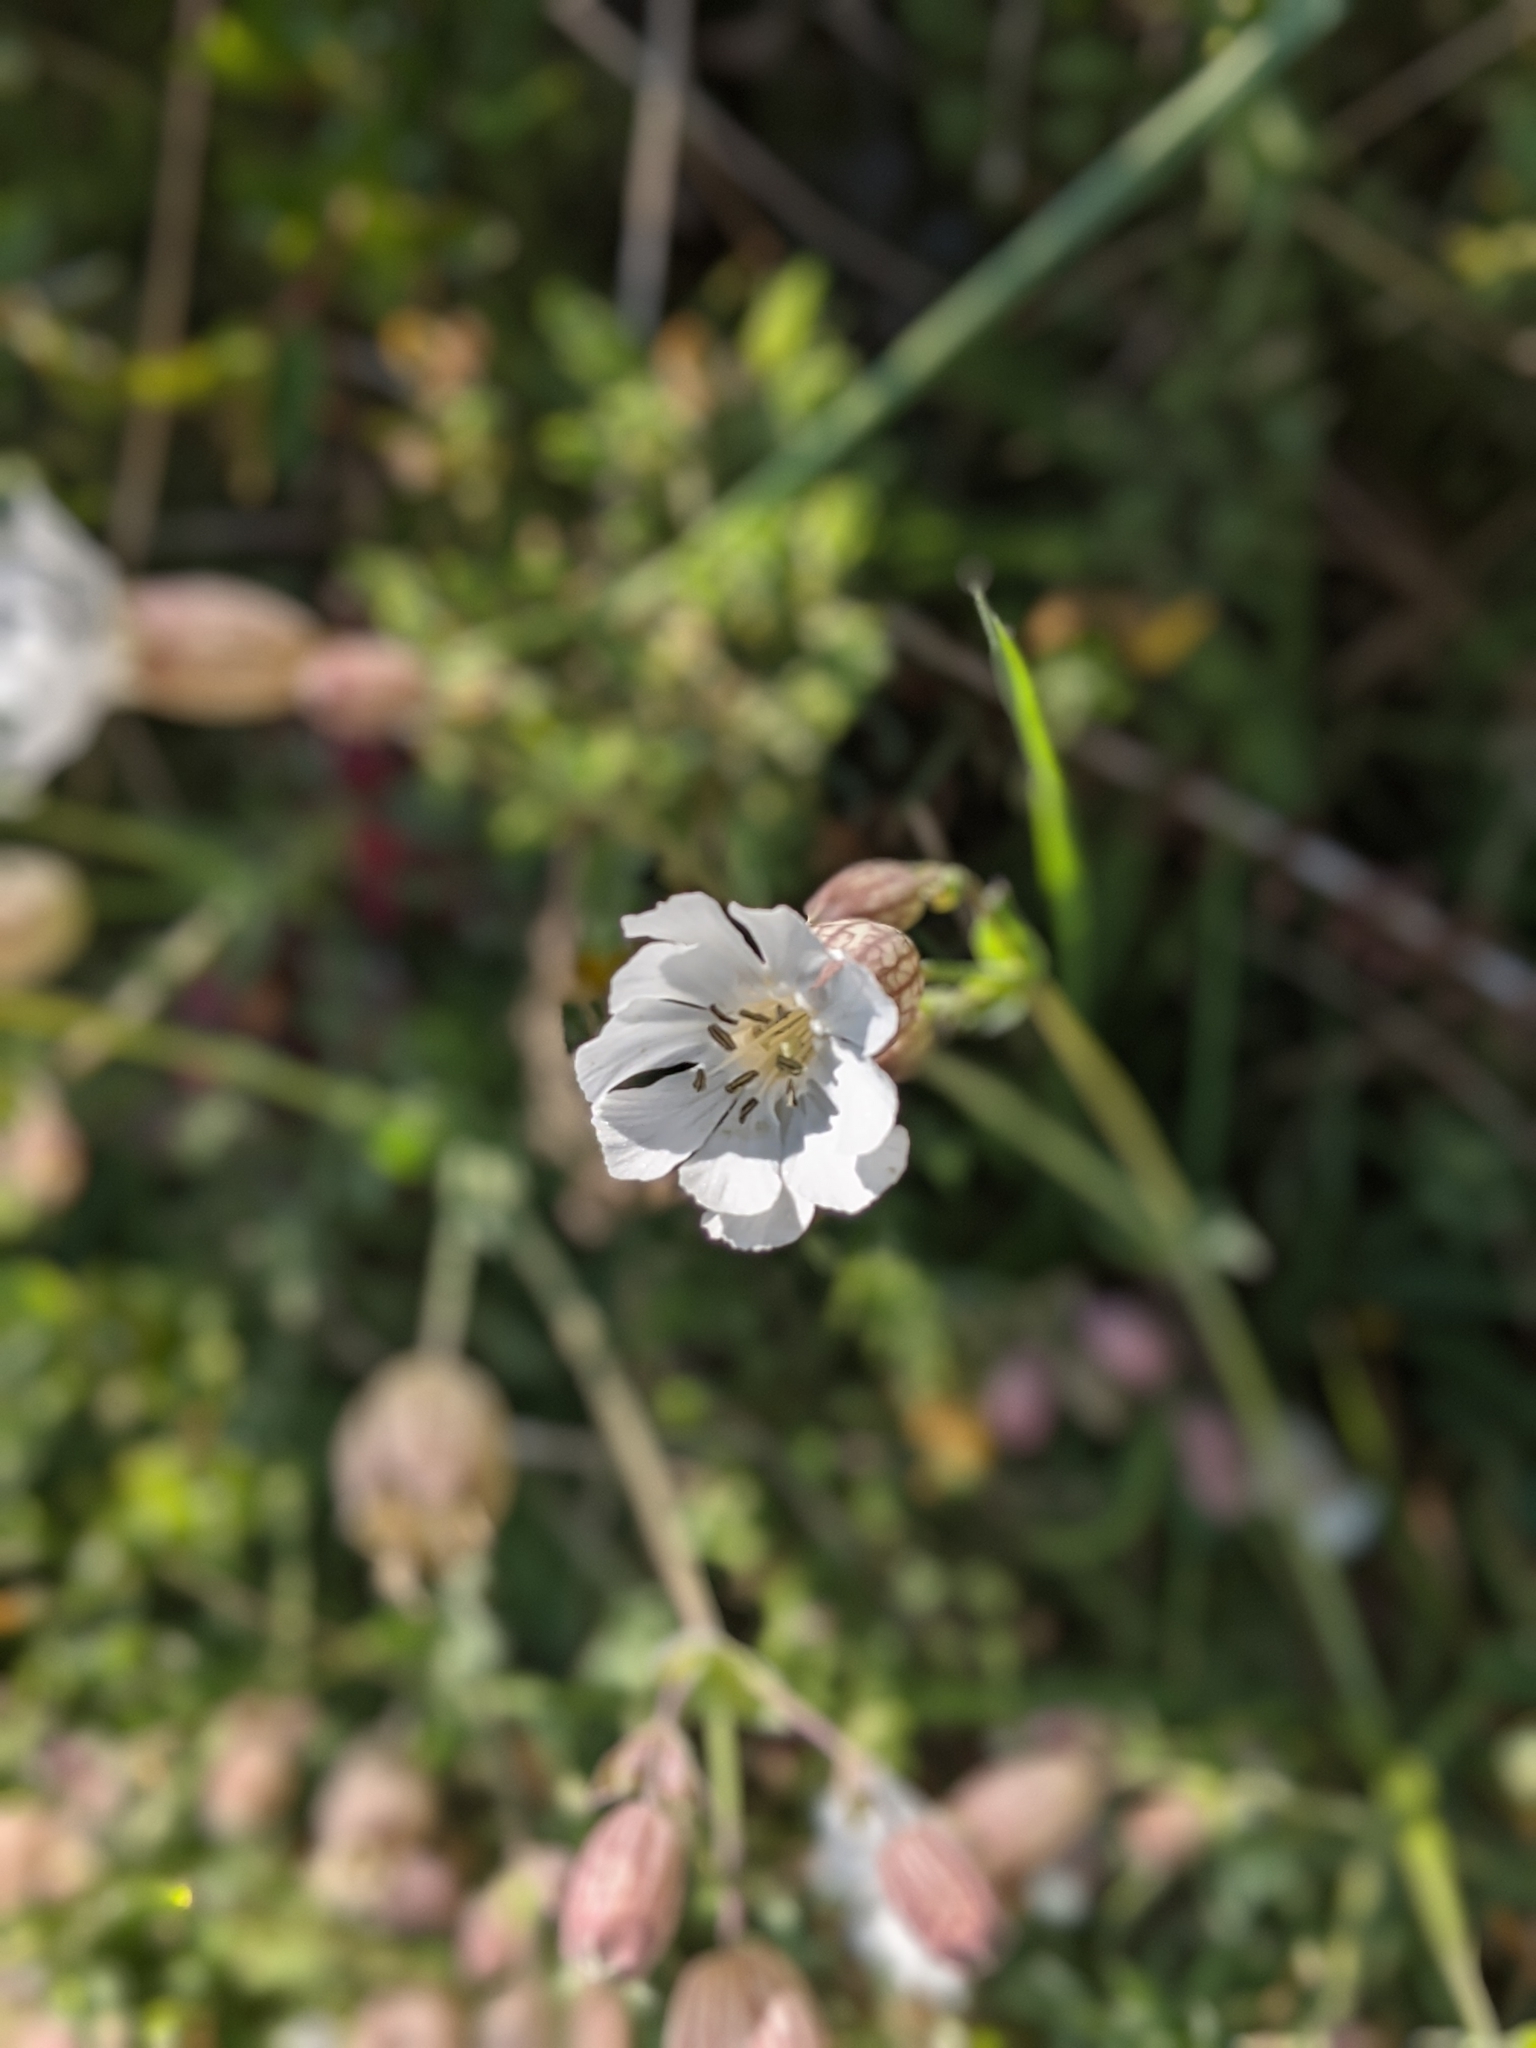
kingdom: Plantae
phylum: Tracheophyta
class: Magnoliopsida
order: Caryophyllales
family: Caryophyllaceae
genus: Silene
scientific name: Silene uniflora
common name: Sea campion
